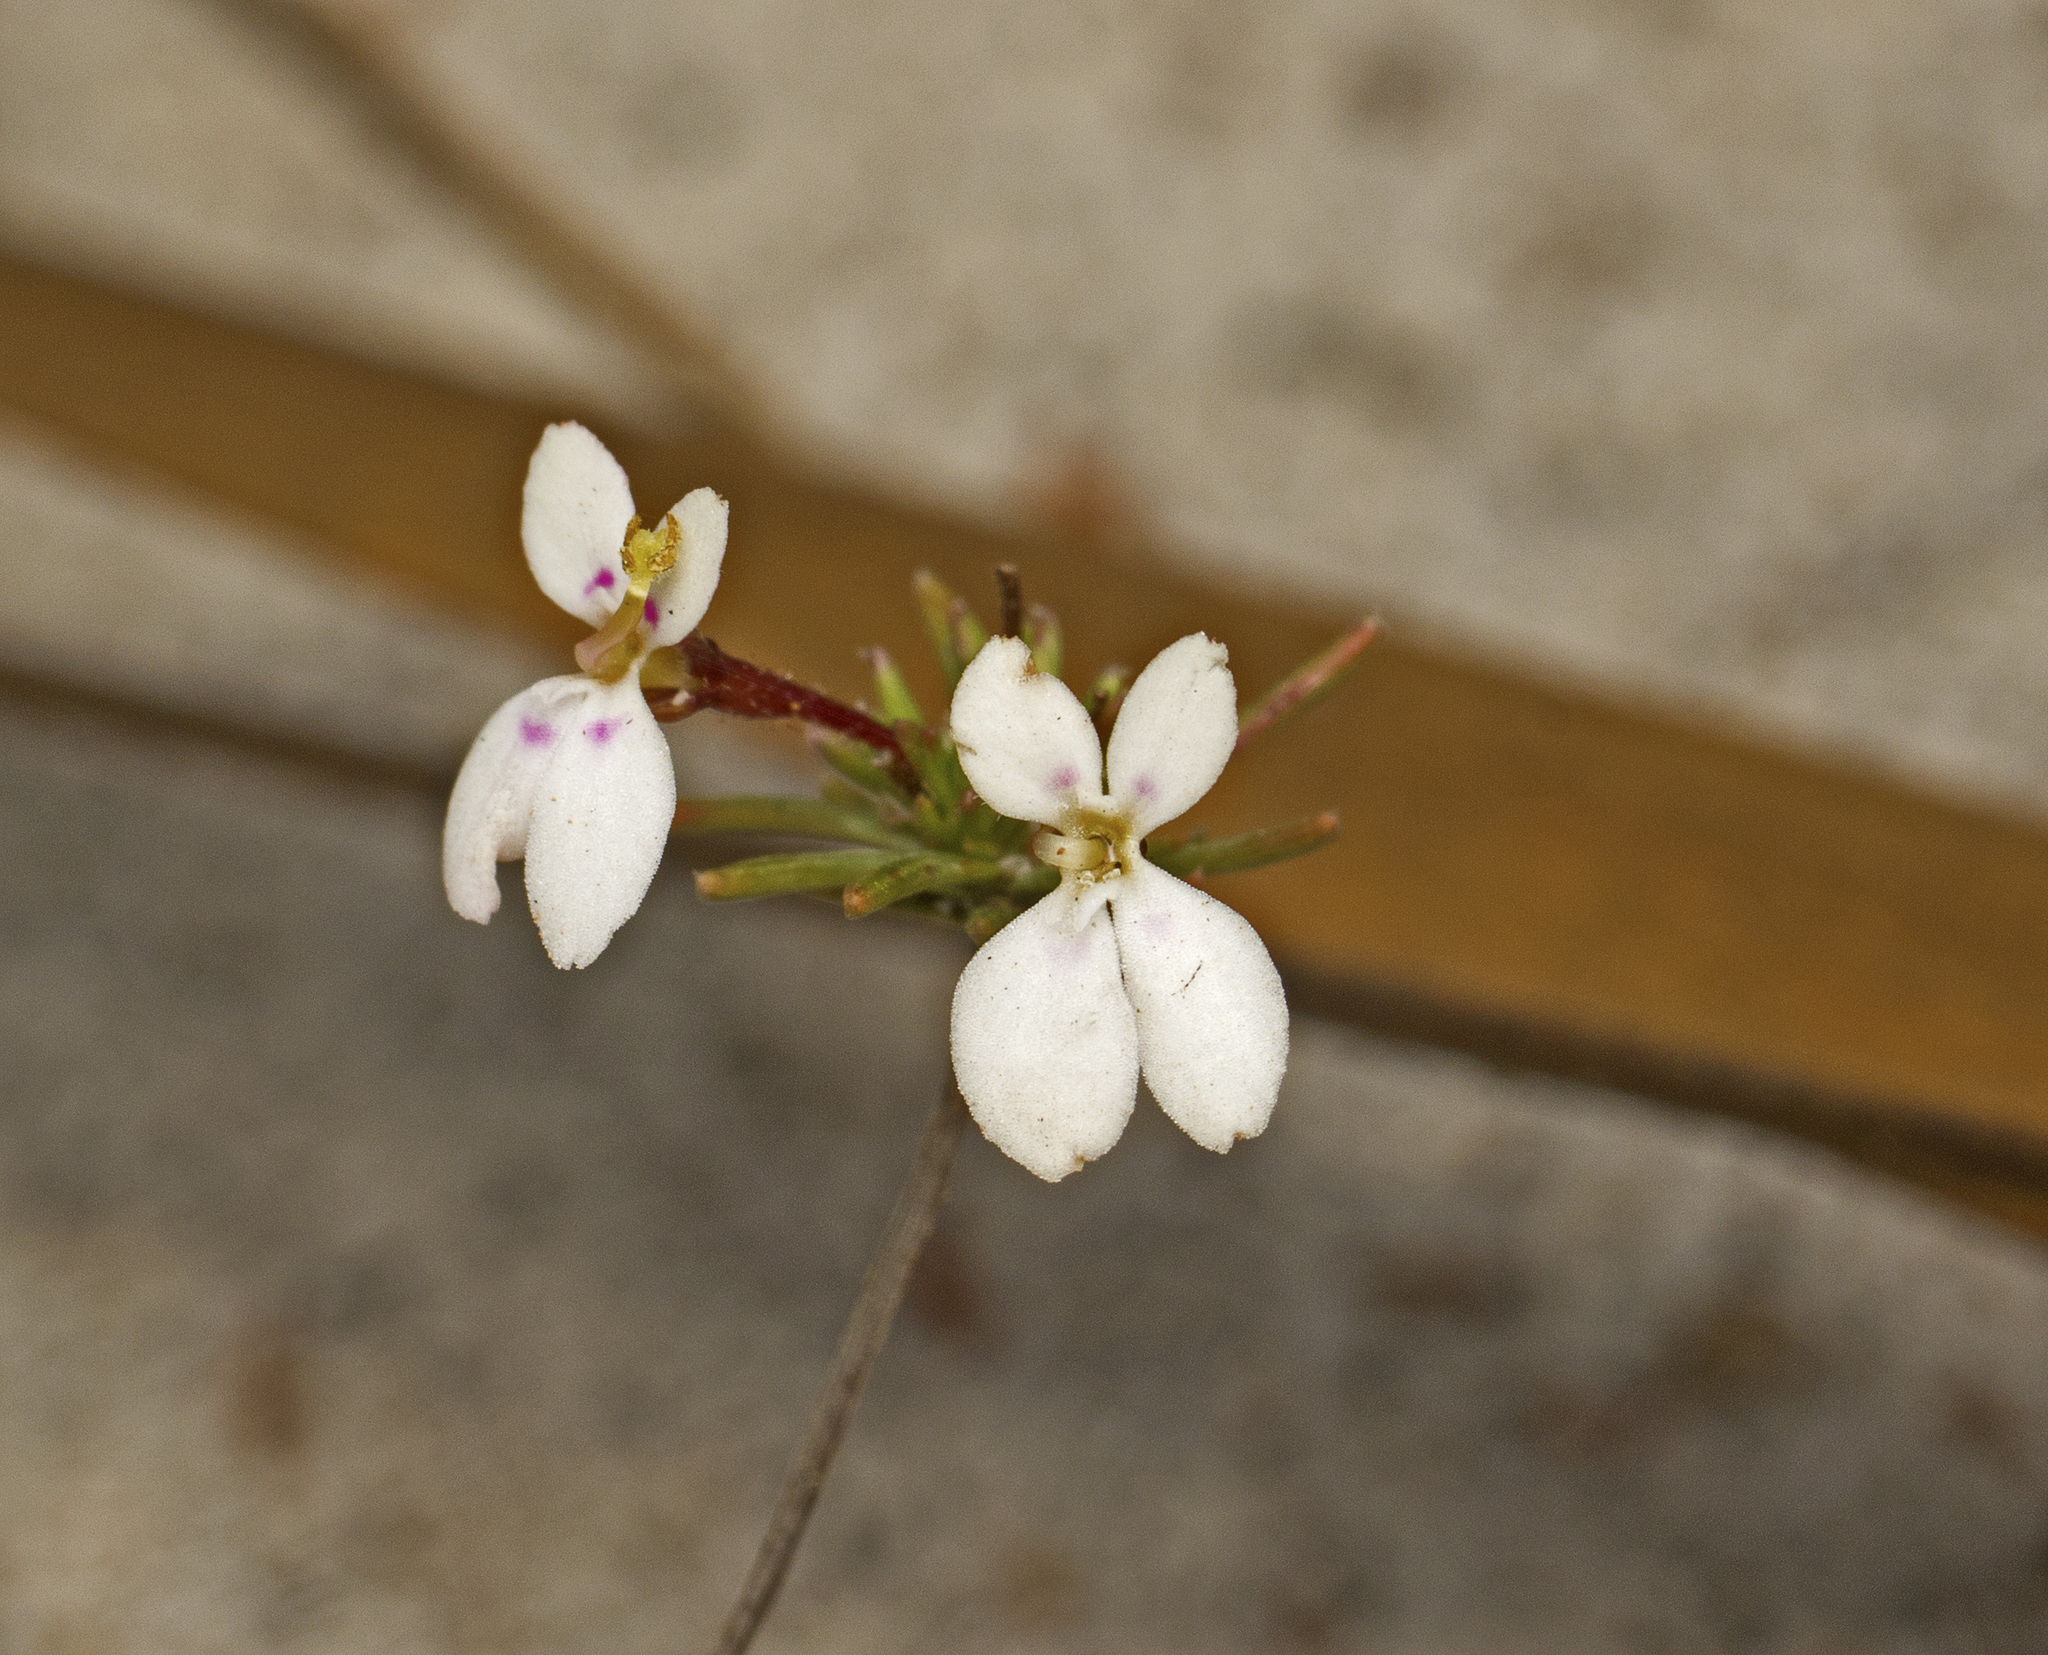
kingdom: Plantae
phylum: Tracheophyta
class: Magnoliopsida
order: Asterales
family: Stylidiaceae
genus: Stylidium
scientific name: Stylidium repens
